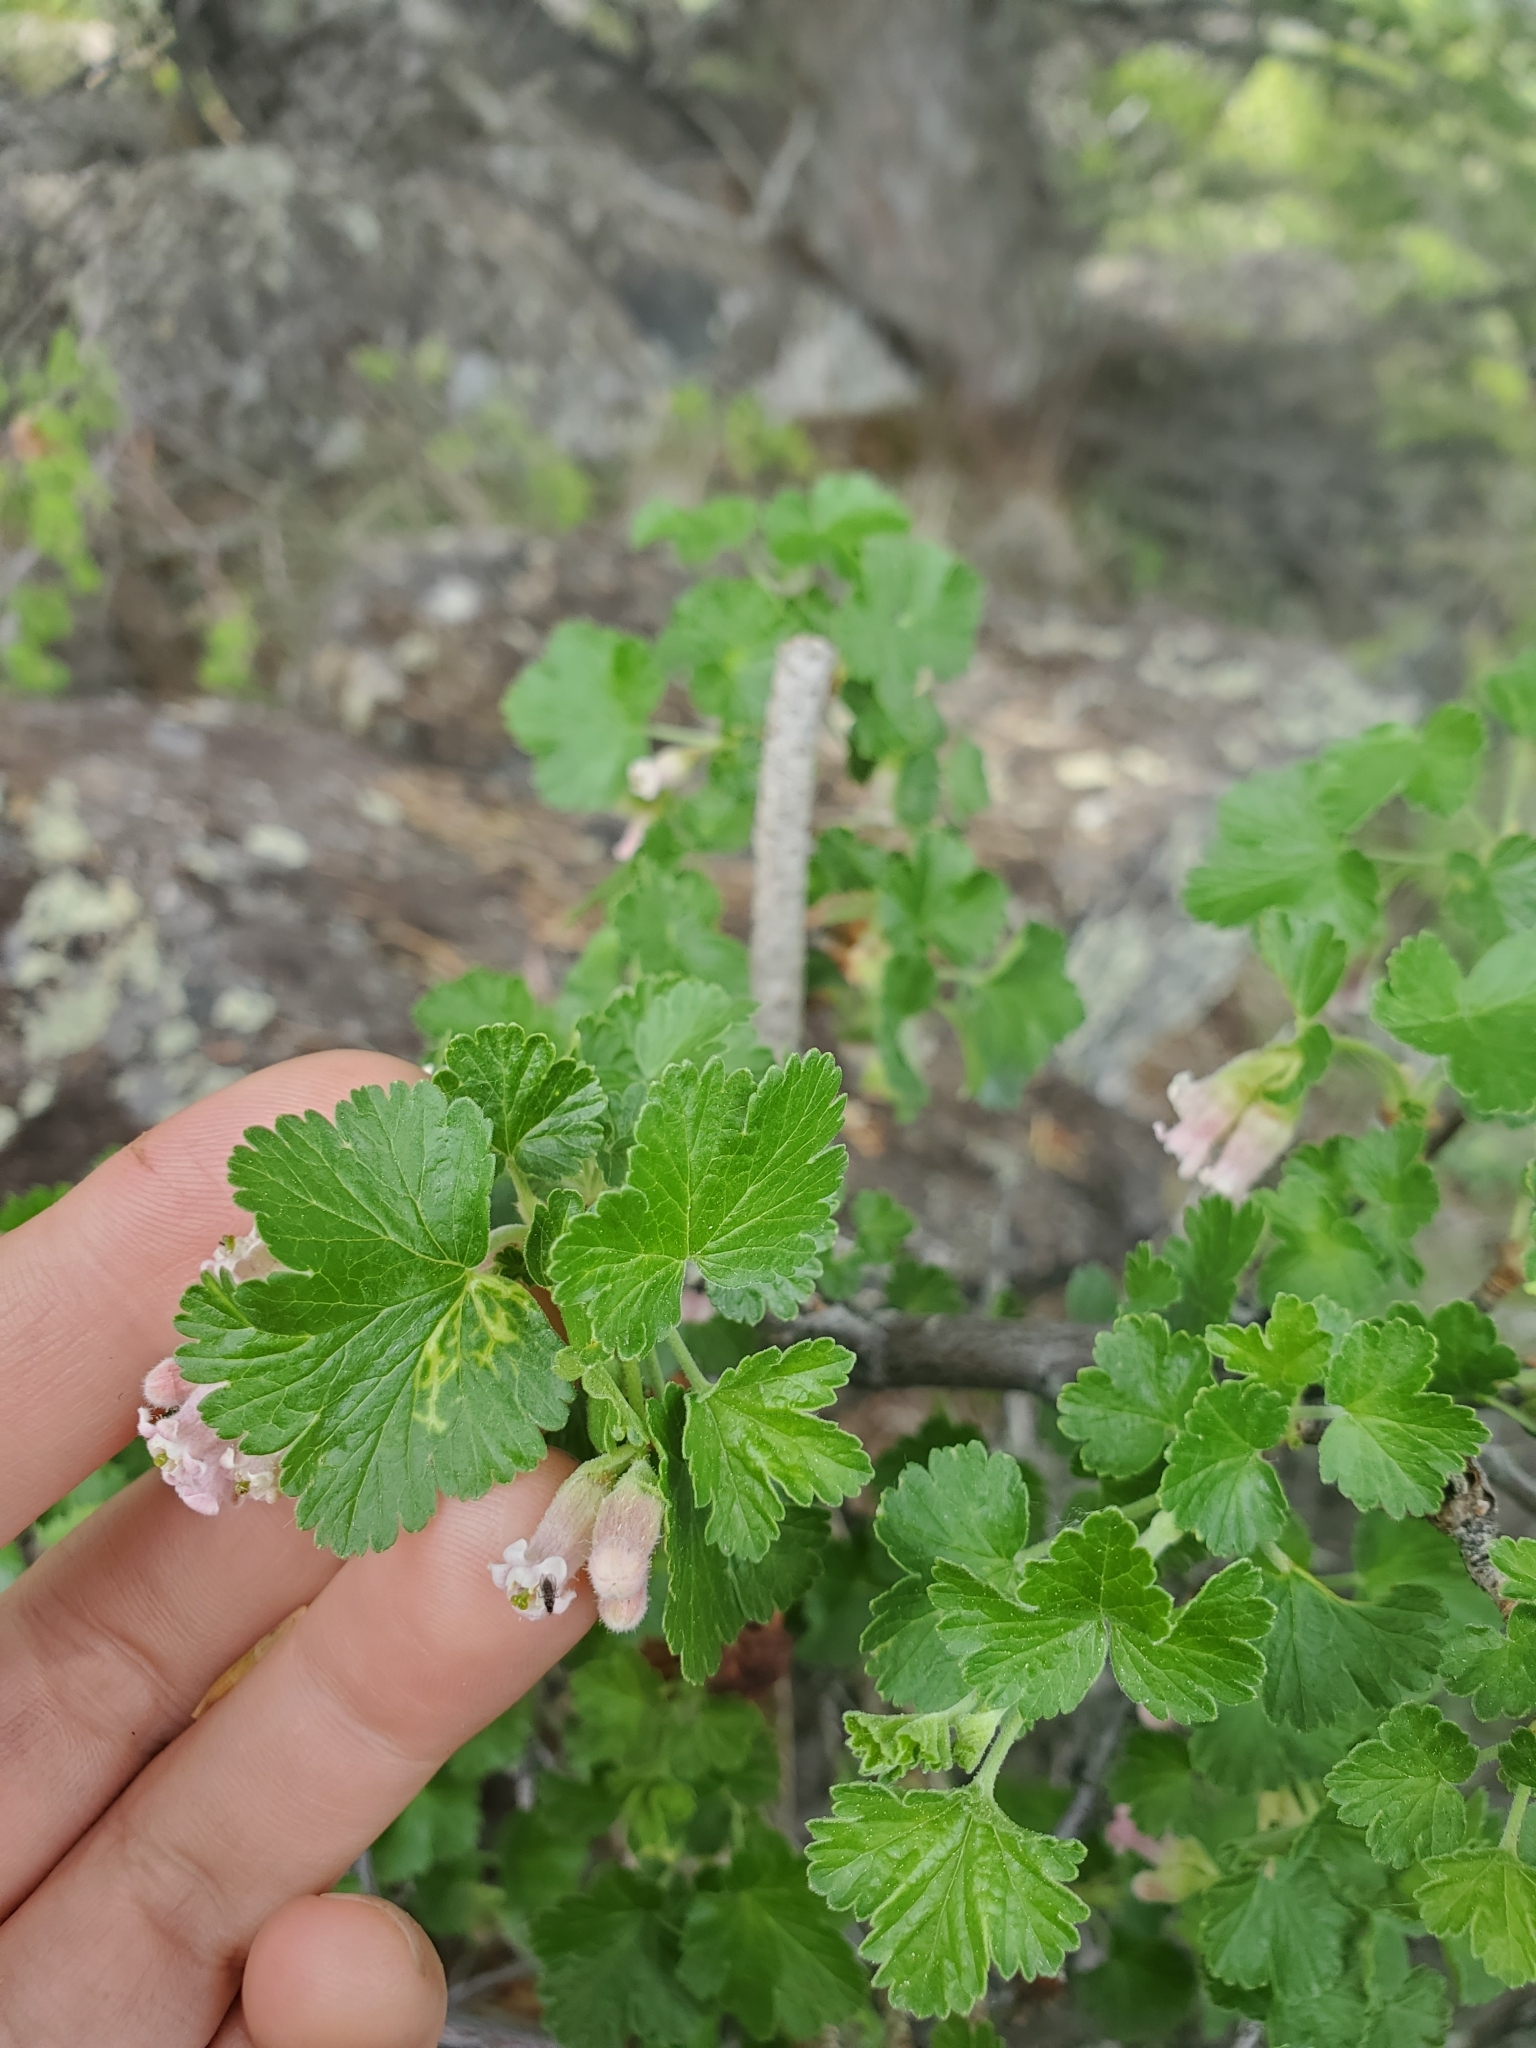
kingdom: Plantae
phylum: Tracheophyta
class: Magnoliopsida
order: Saxifragales
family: Grossulariaceae
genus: Ribes
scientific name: Ribes cereum
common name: Wax currant
